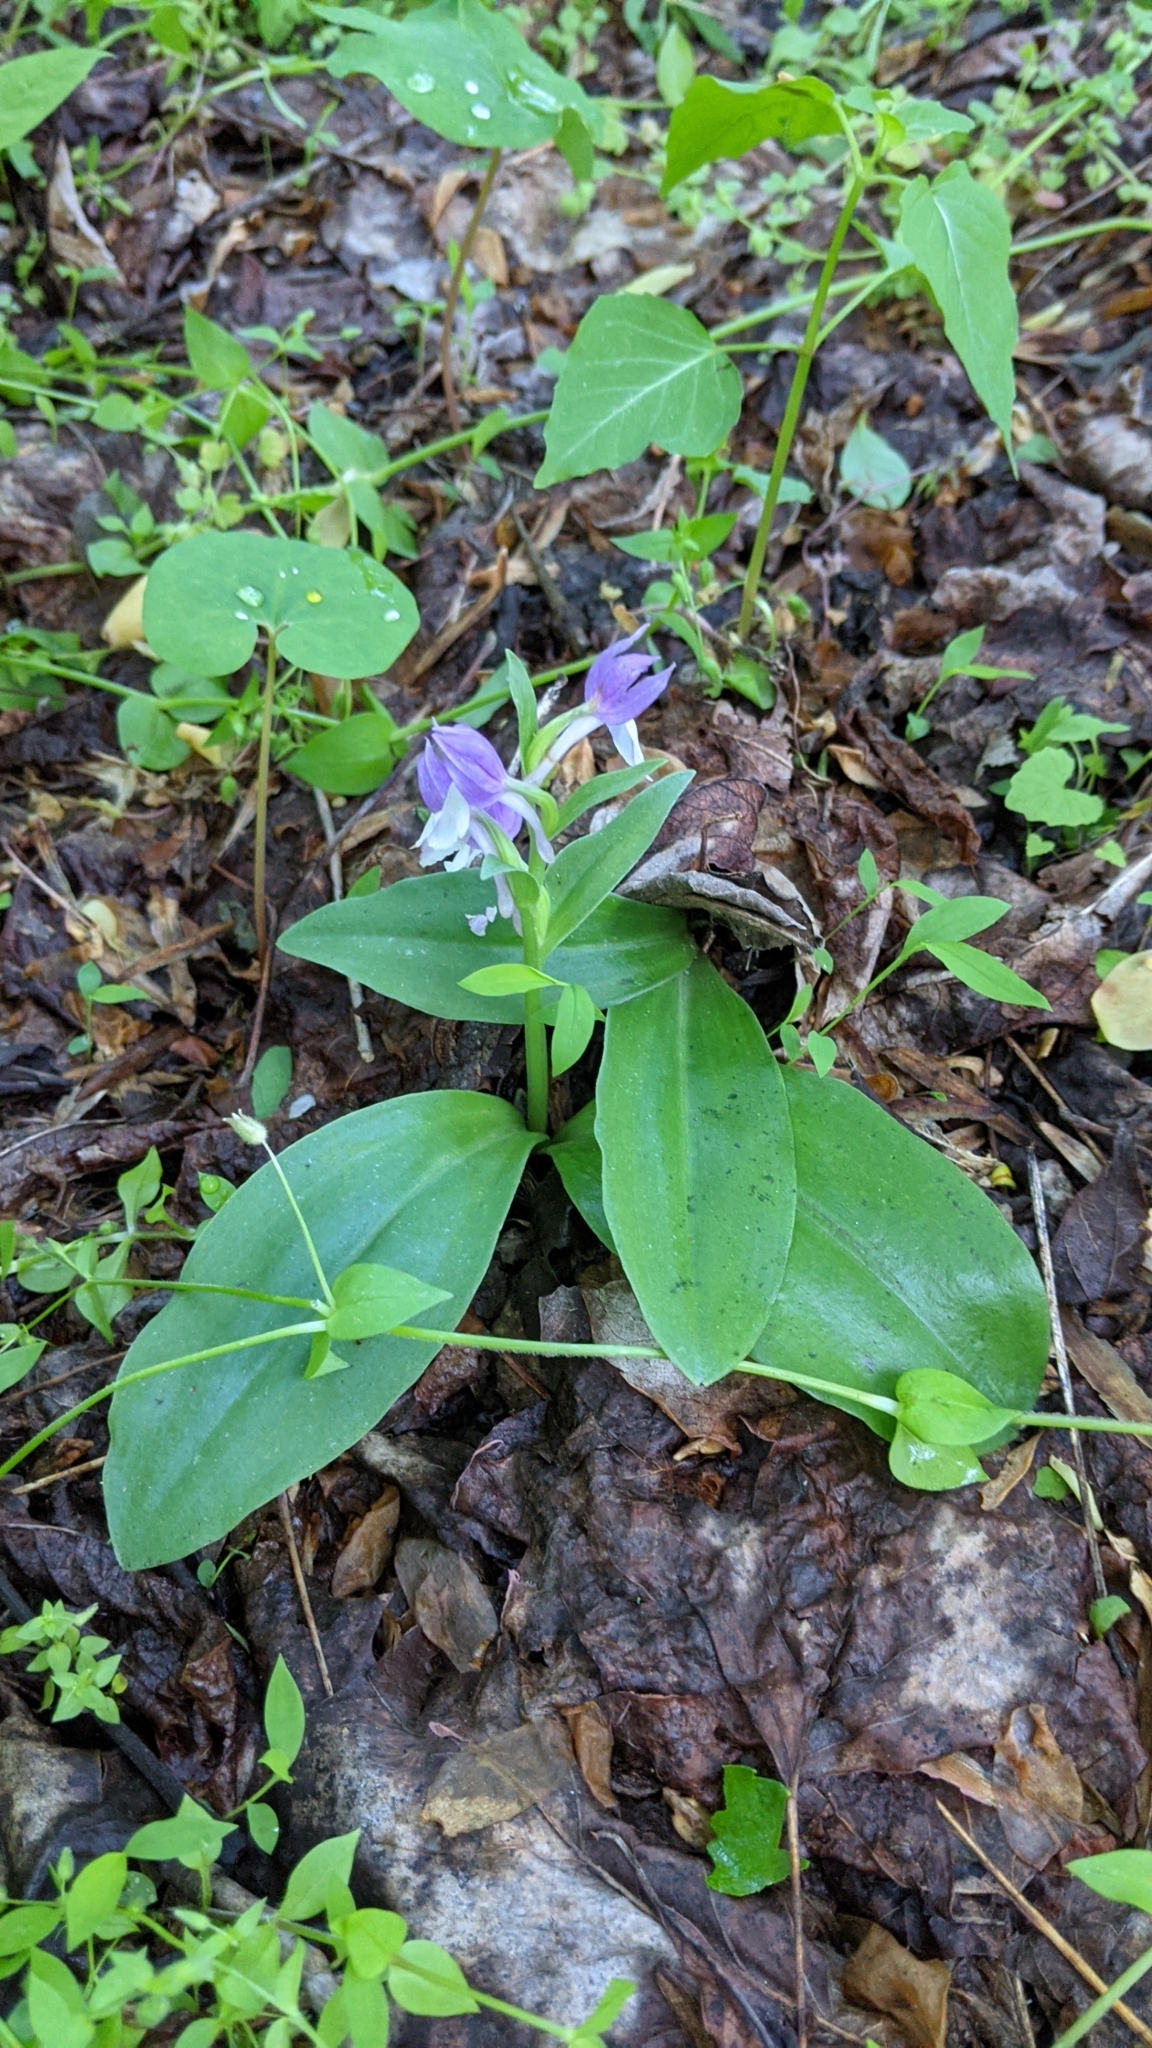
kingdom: Plantae
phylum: Tracheophyta
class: Liliopsida
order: Asparagales
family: Orchidaceae
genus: Galearis
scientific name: Galearis spectabilis
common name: Purple-hooded orchis
